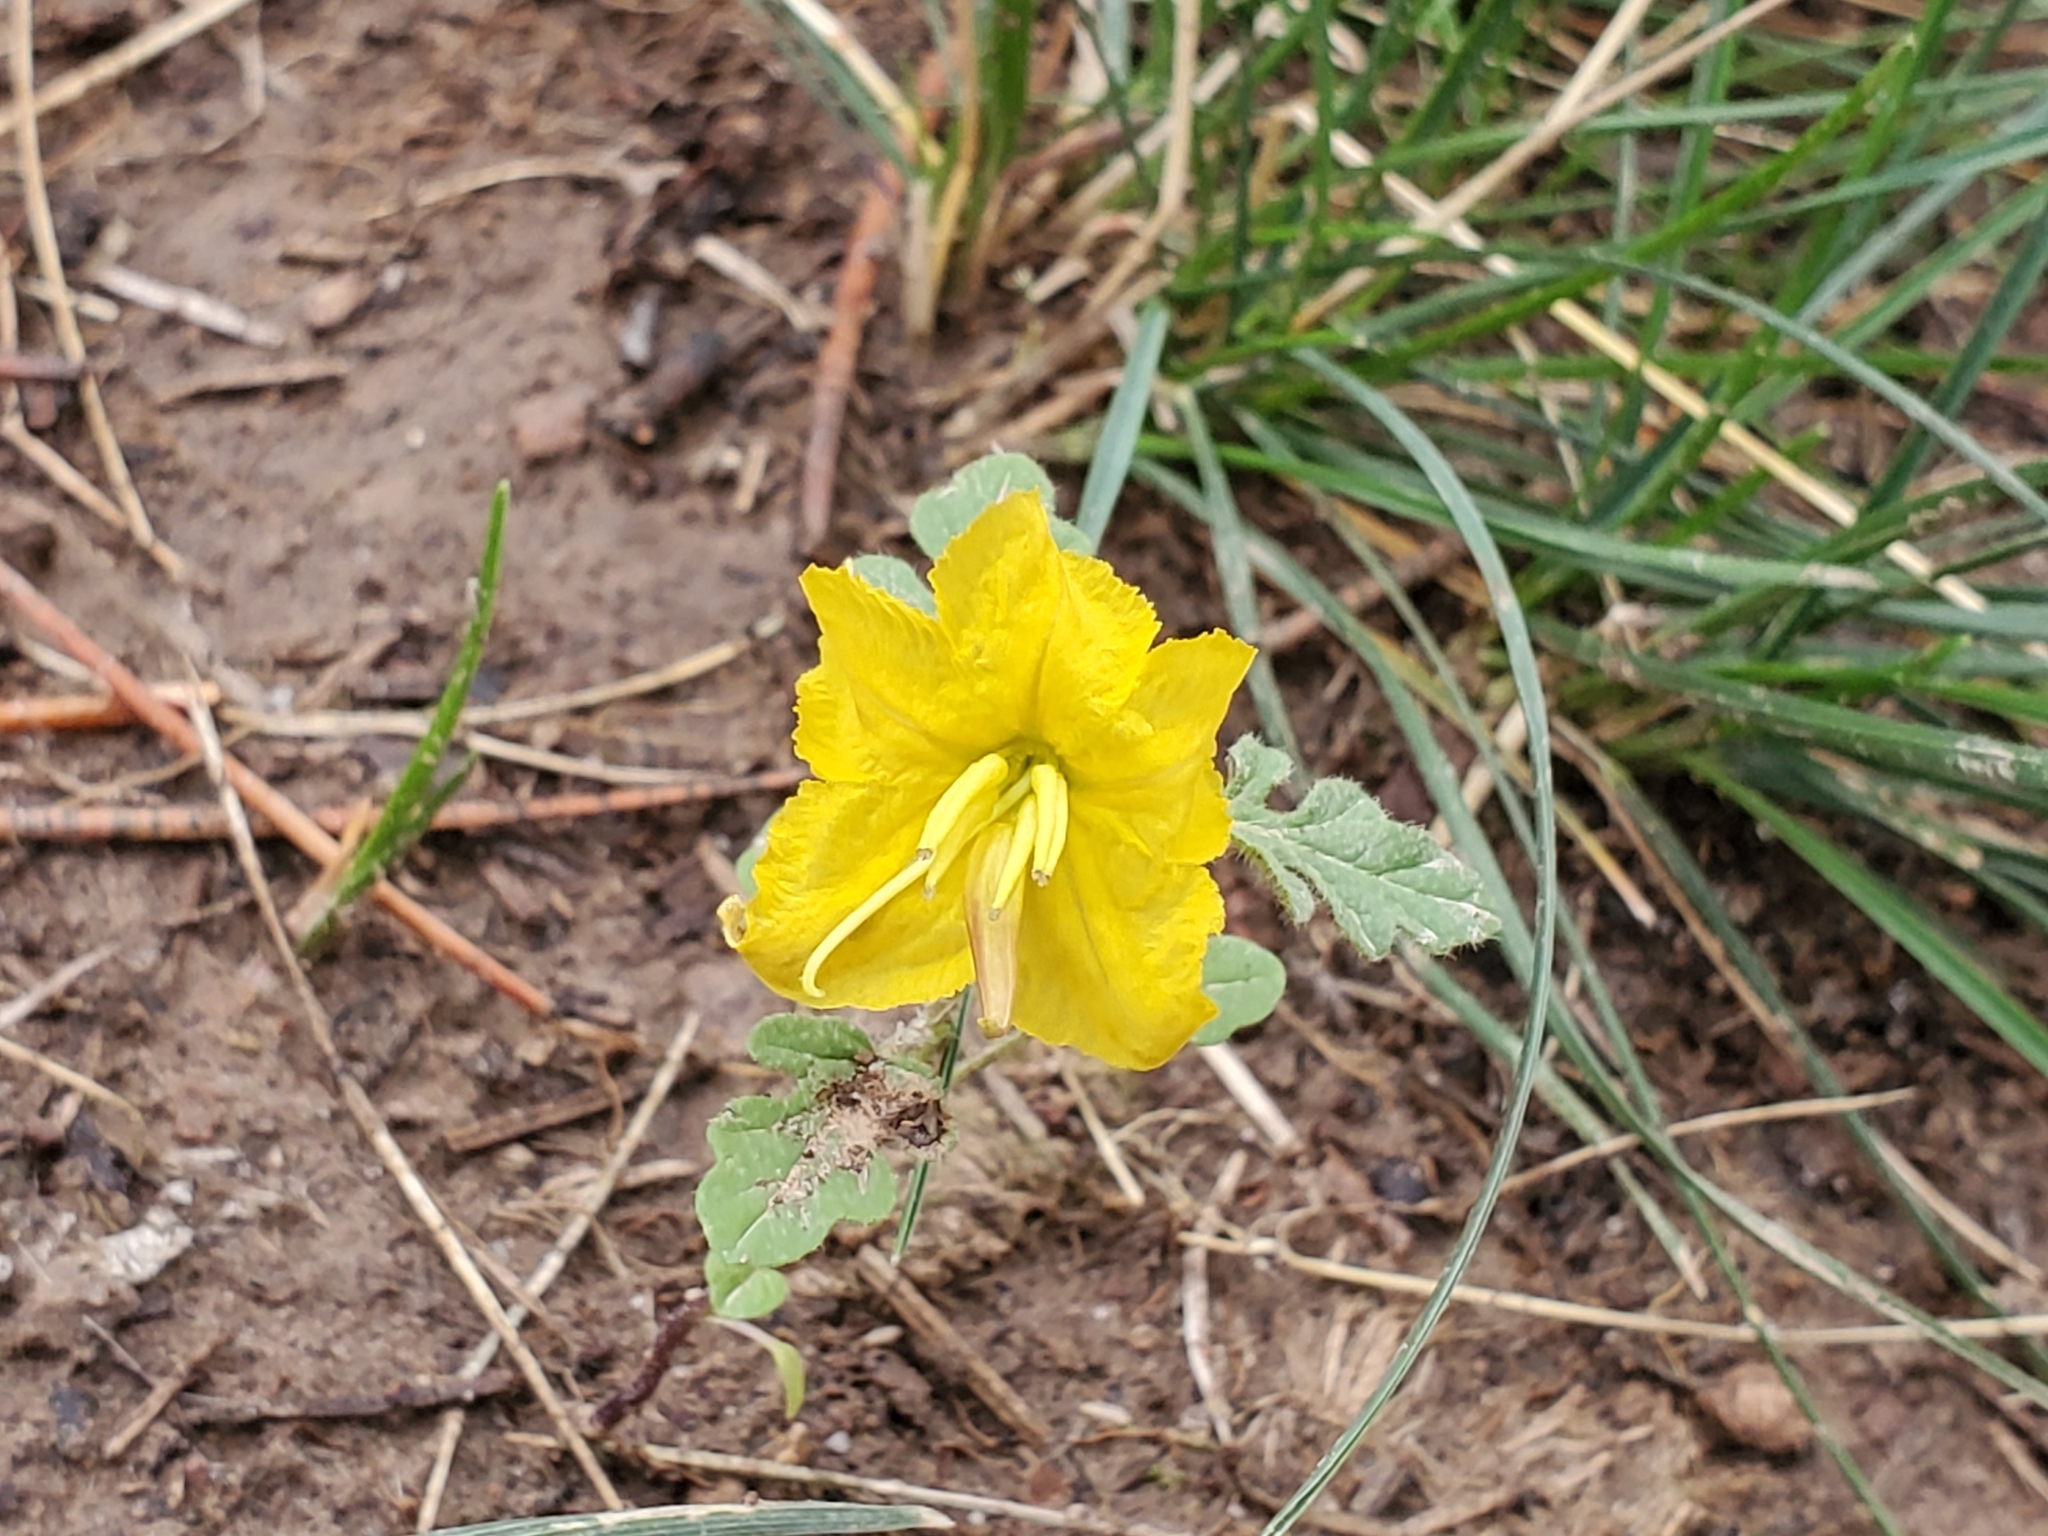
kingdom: Plantae
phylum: Tracheophyta
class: Magnoliopsida
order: Solanales
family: Solanaceae
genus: Solanum
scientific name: Solanum angustifolium
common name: Buffalobur nightshade
